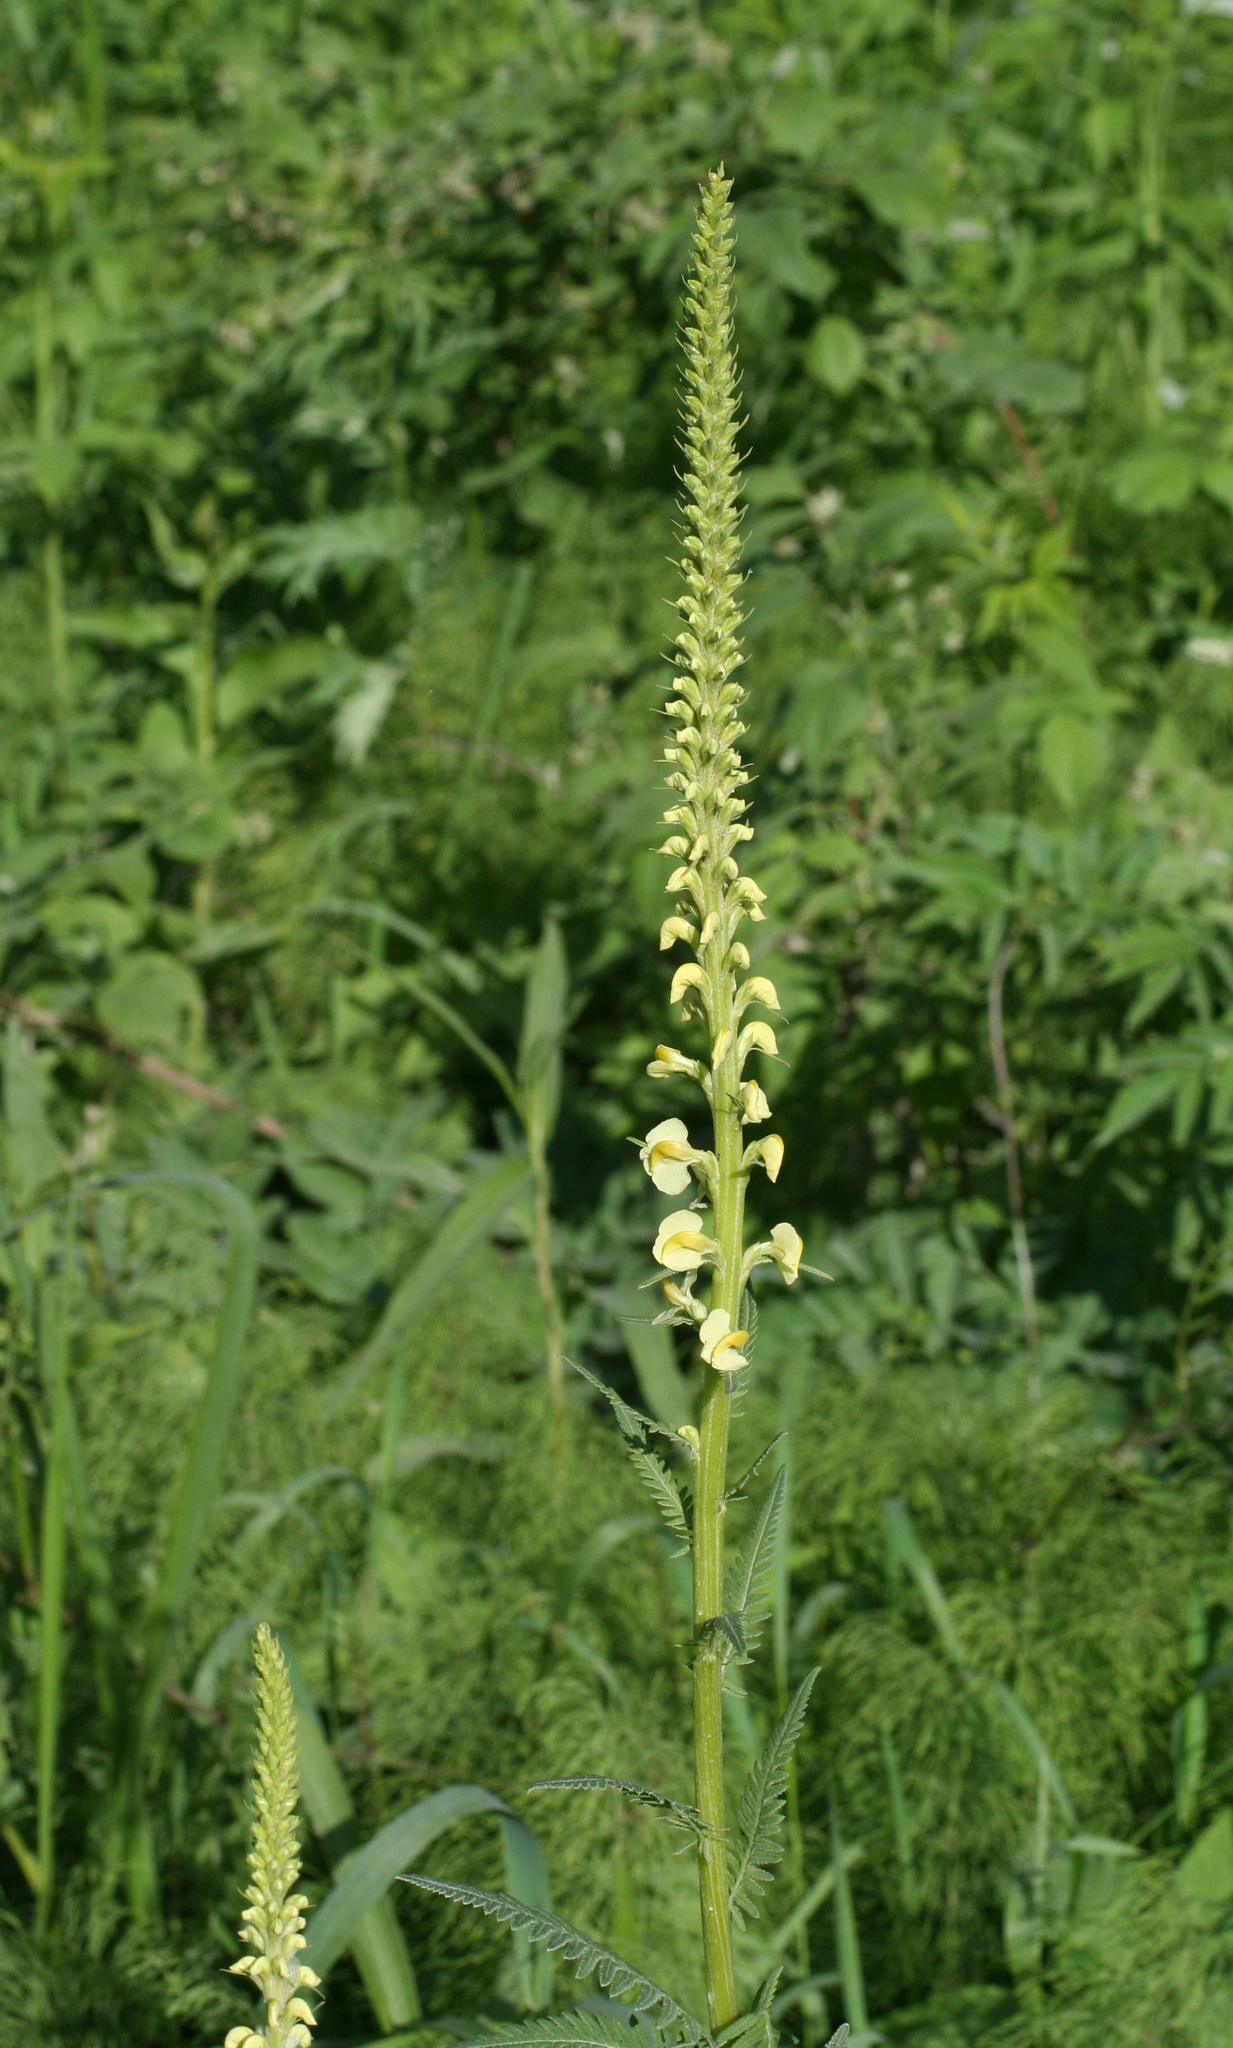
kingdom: Plantae
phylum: Tracheophyta
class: Magnoliopsida
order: Lamiales
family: Orobanchaceae
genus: Pedicularis
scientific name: Pedicularis incarnata
